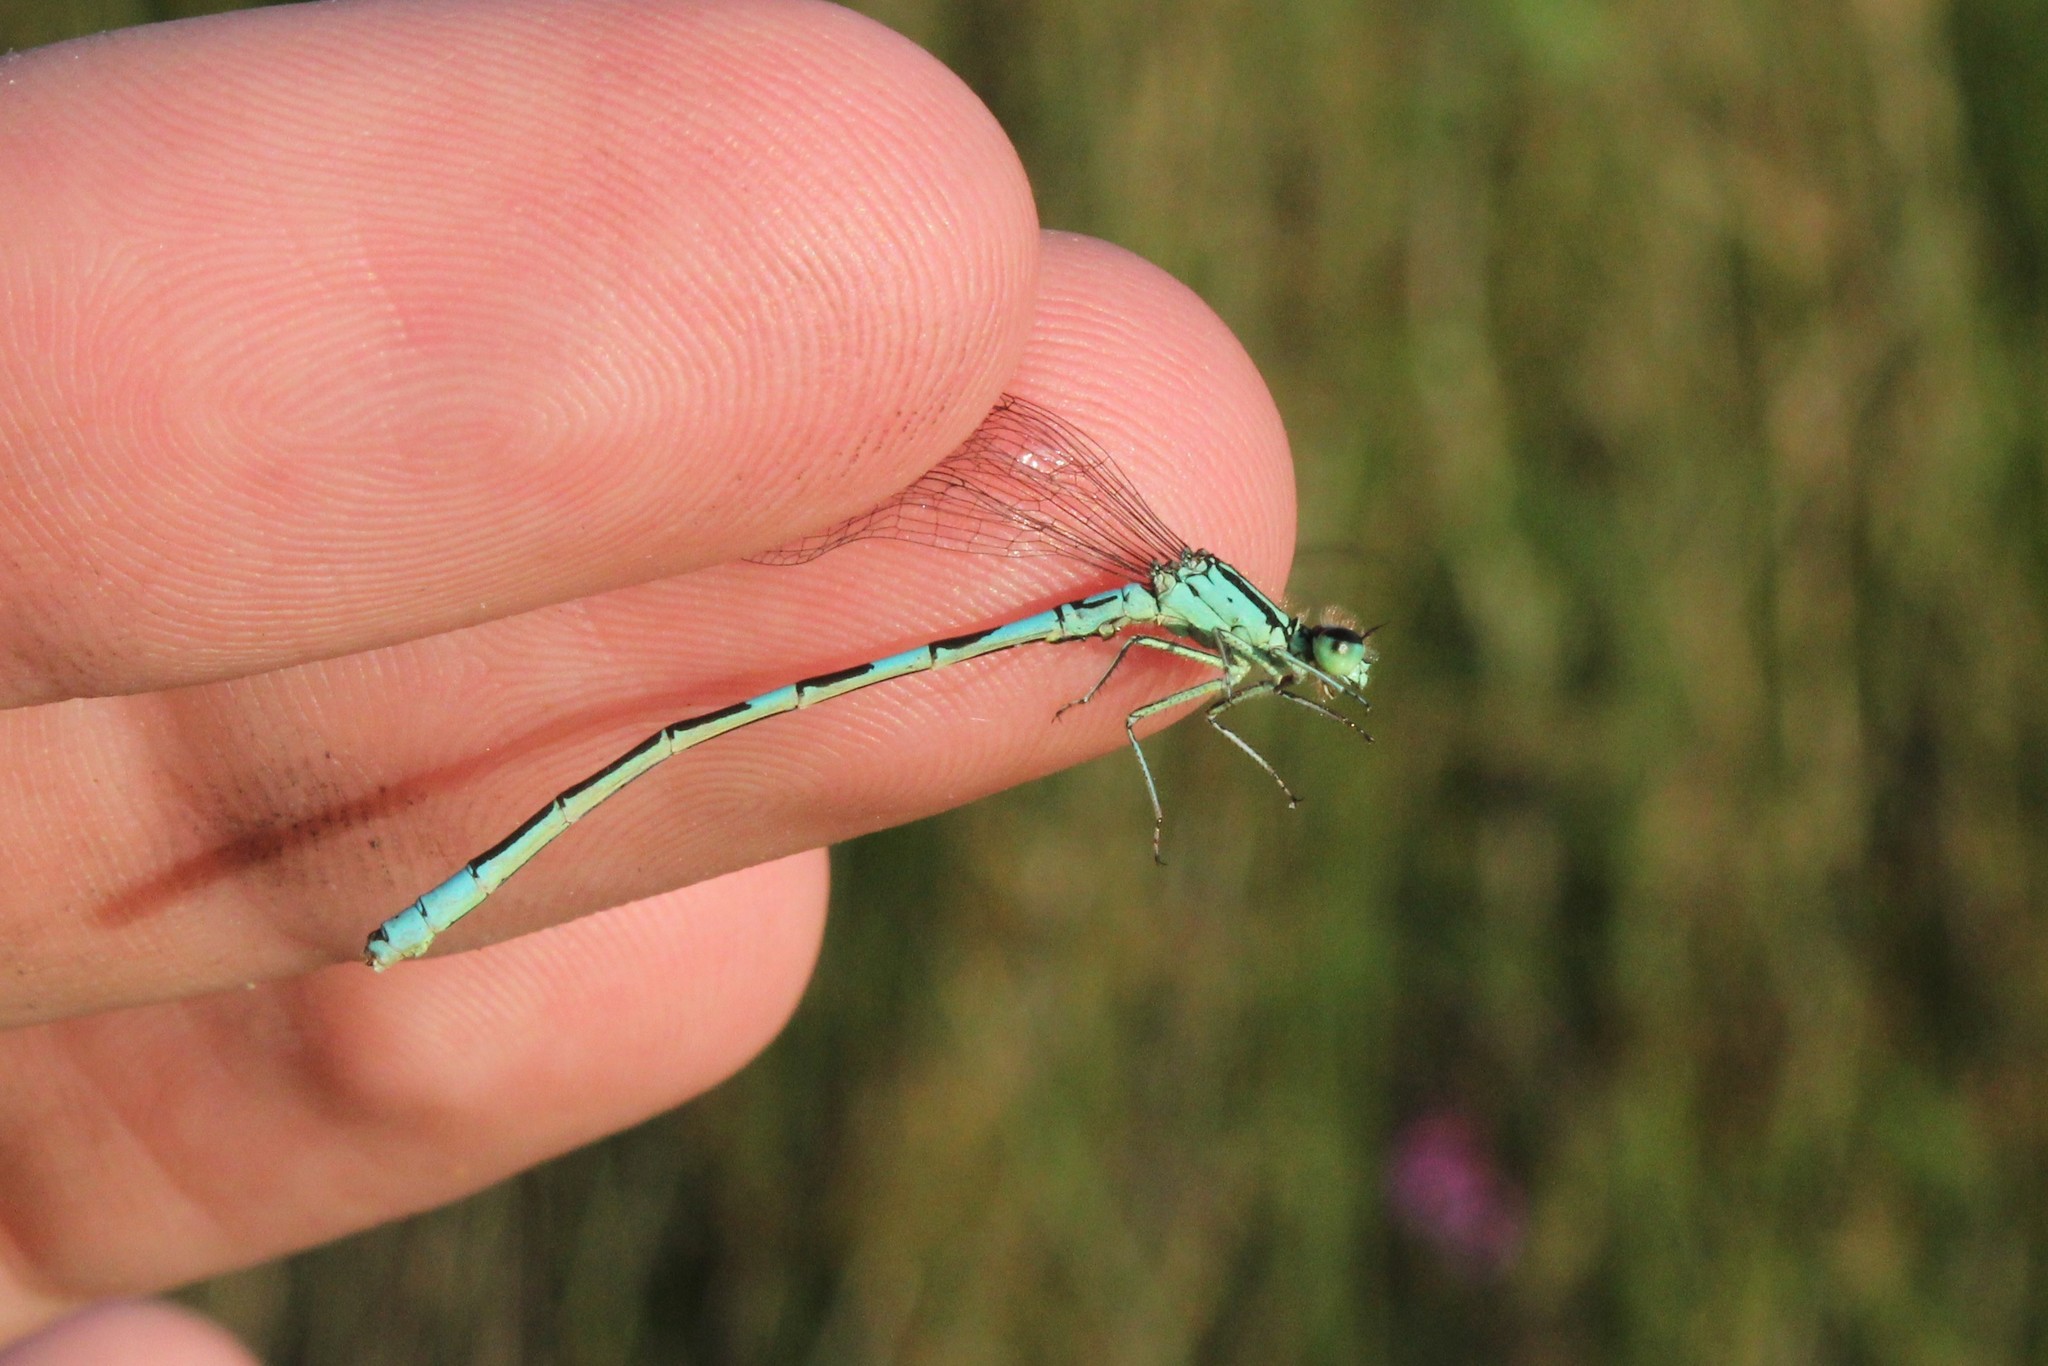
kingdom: Animalia
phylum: Arthropoda
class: Insecta
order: Odonata
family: Coenagrionidae
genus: Coenagrion
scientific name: Coenagrion resolutum
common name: Taiga bluet
